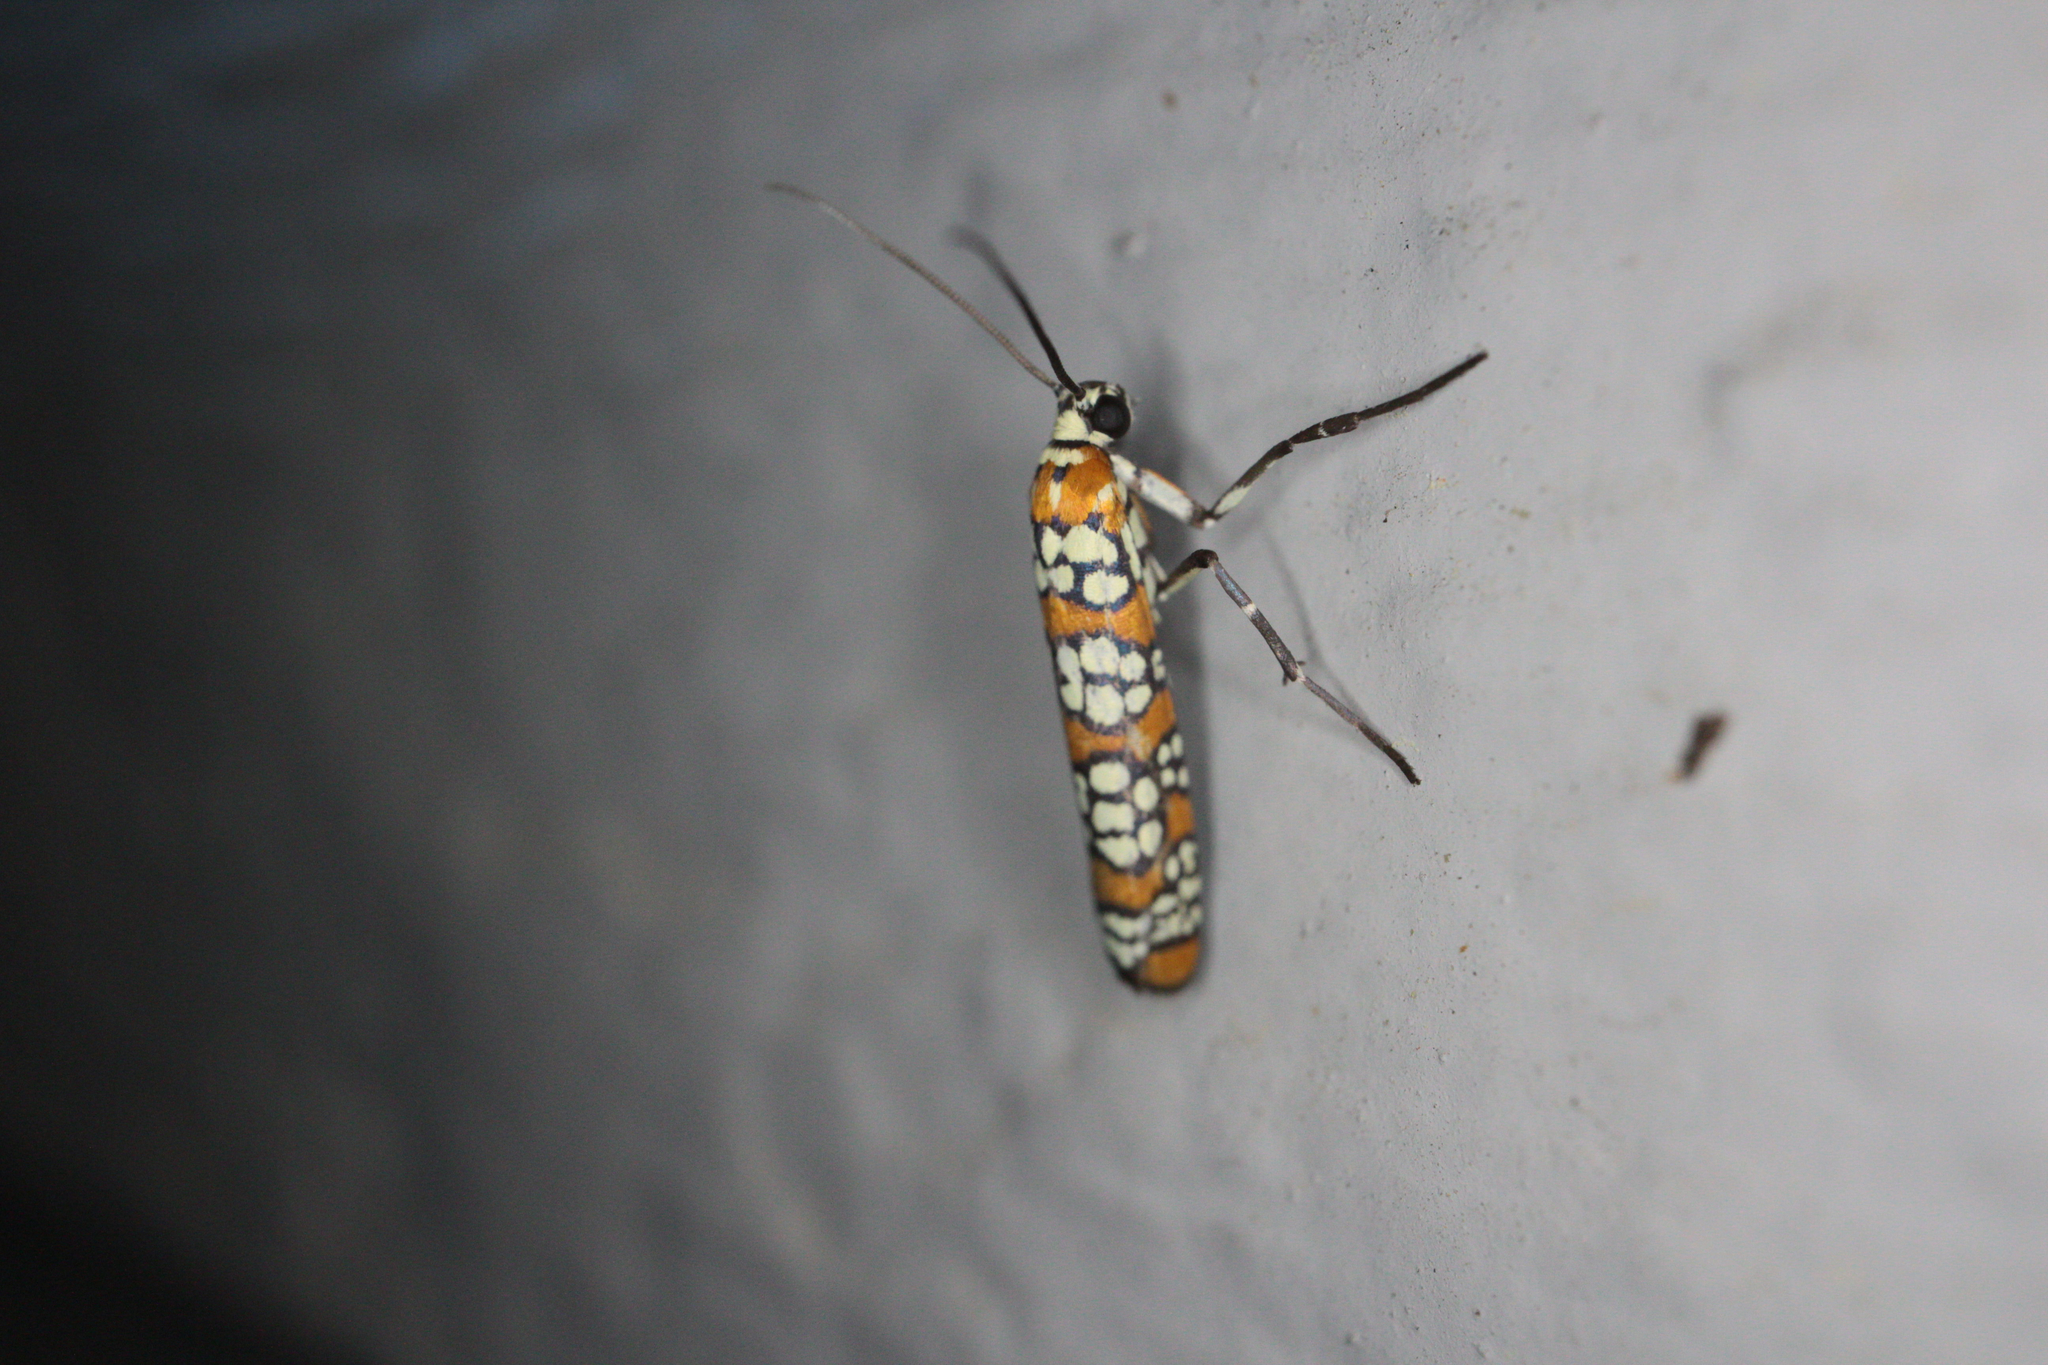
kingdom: Animalia
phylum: Arthropoda
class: Insecta
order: Lepidoptera
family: Attevidae
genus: Atteva
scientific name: Atteva punctella
